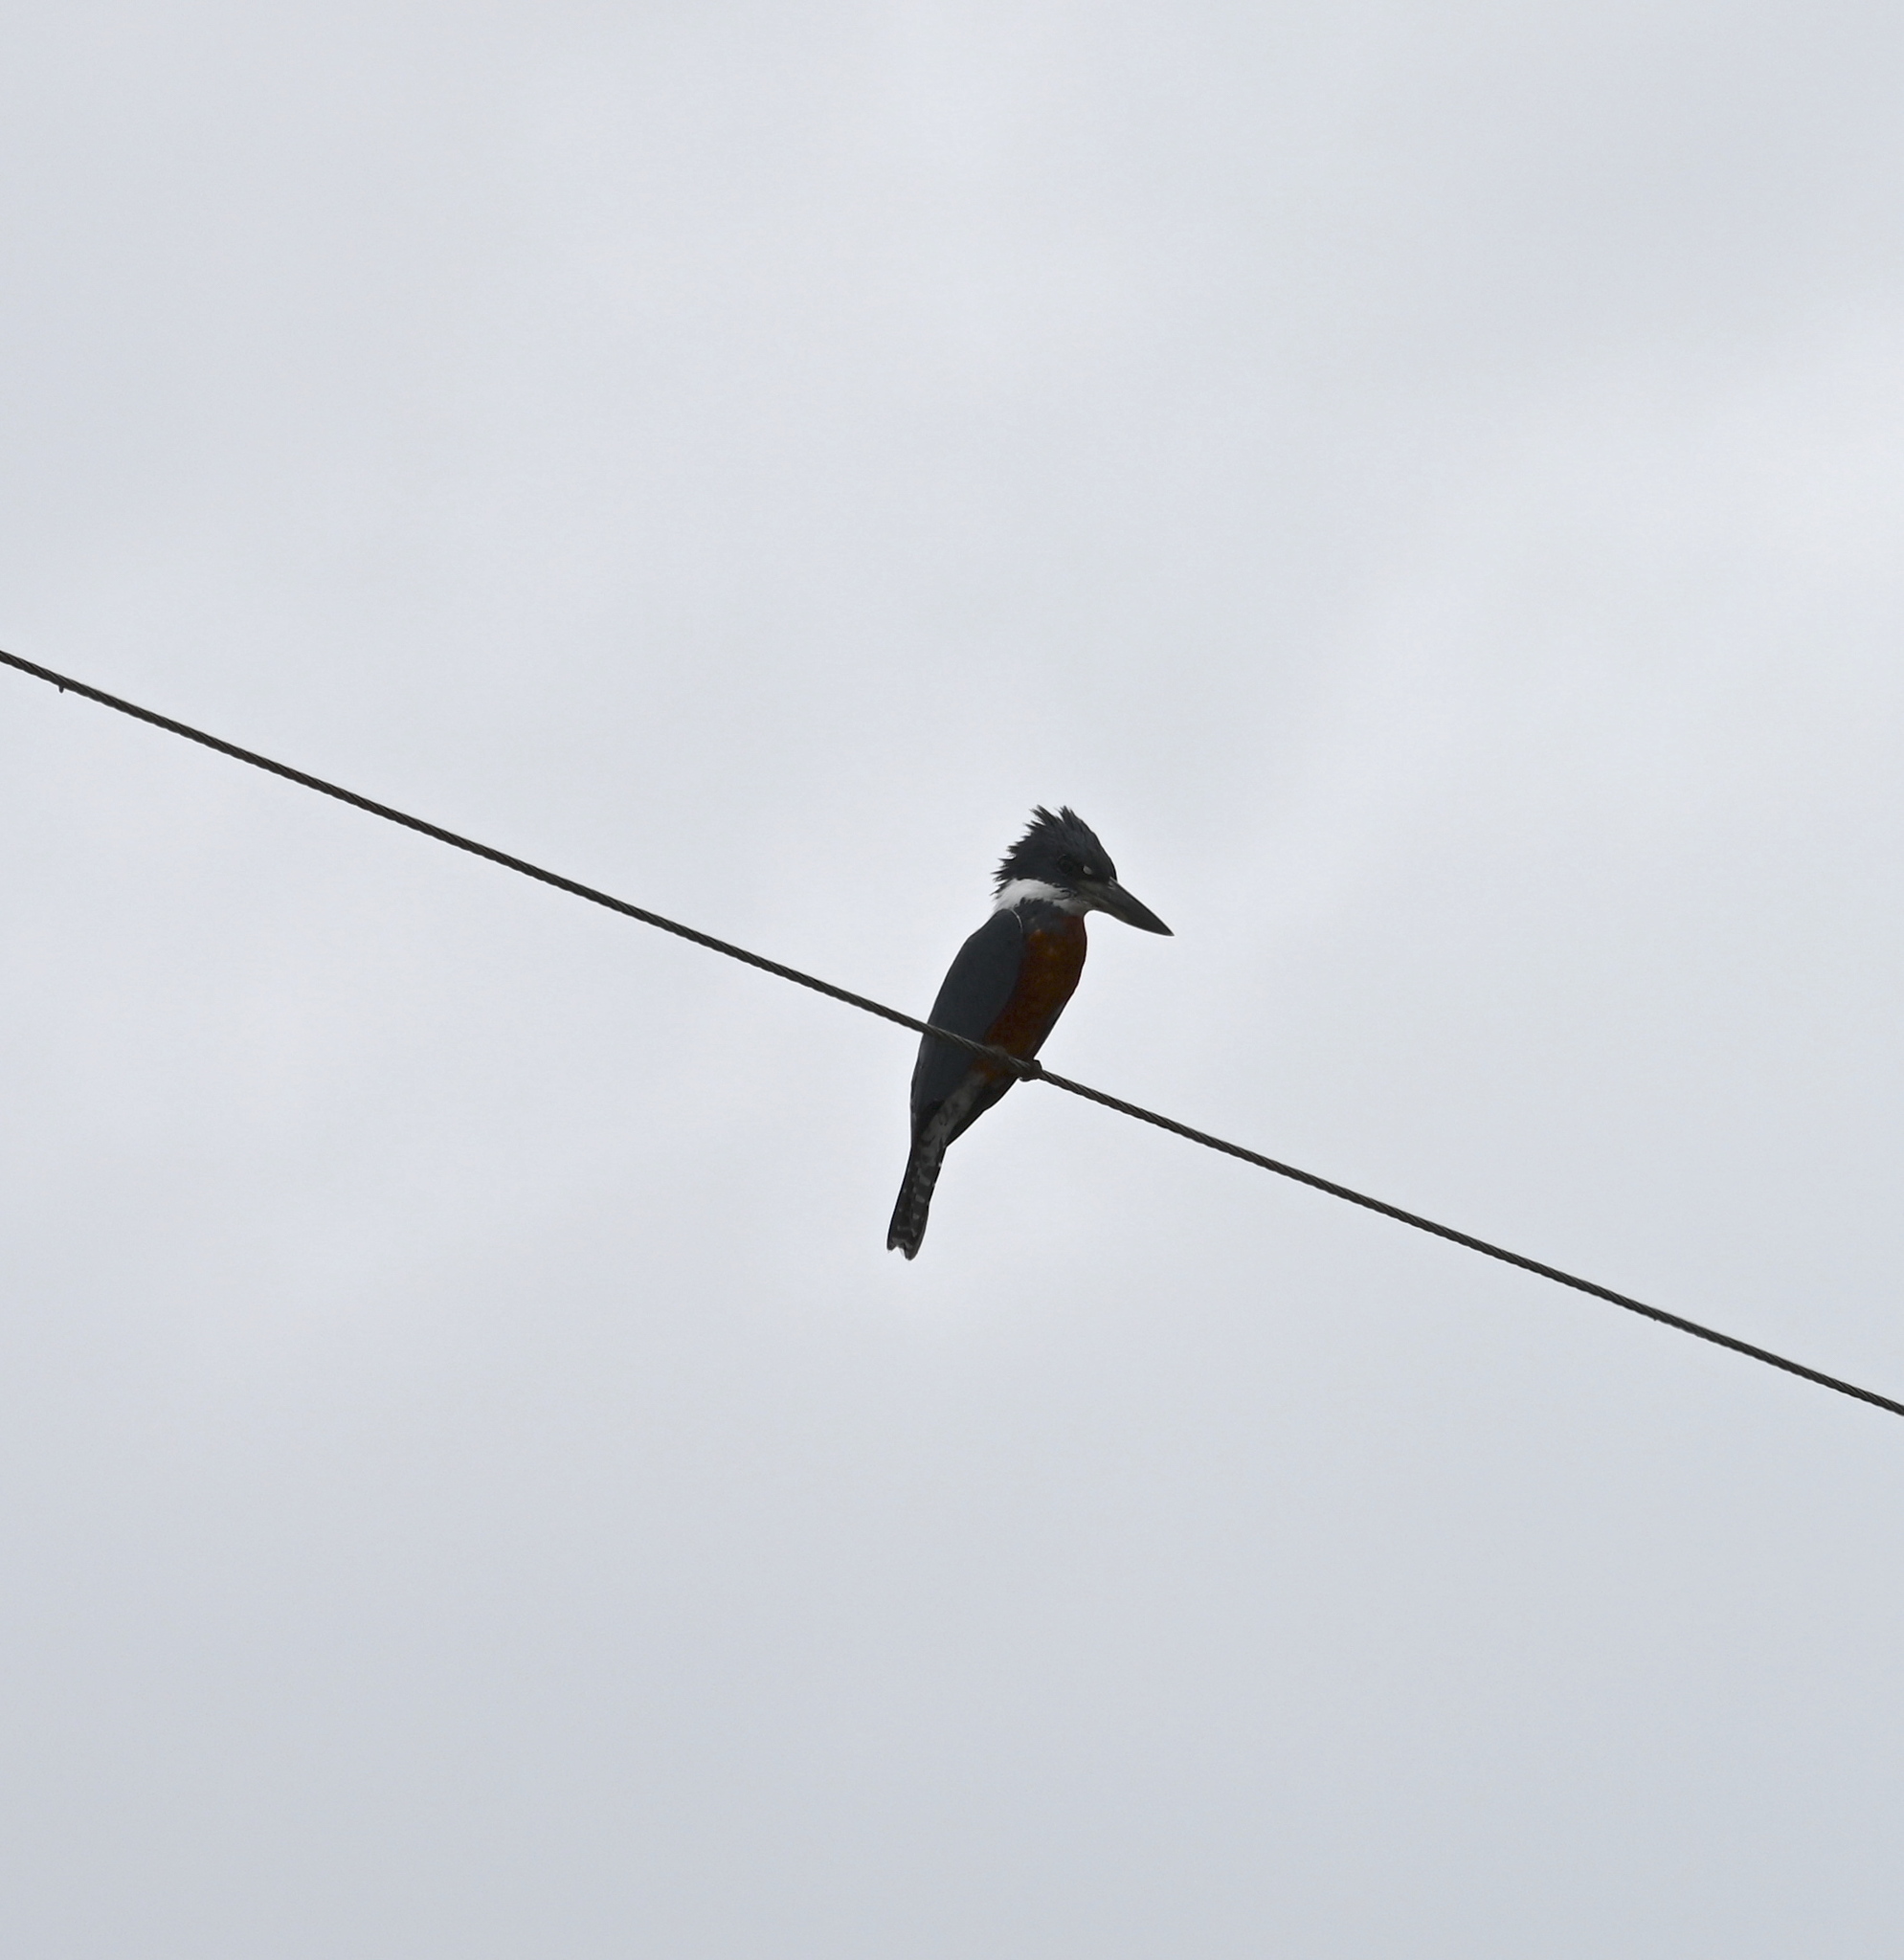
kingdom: Animalia
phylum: Chordata
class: Aves
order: Coraciiformes
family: Alcedinidae
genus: Megaceryle
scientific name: Megaceryle torquata
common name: Ringed kingfisher
